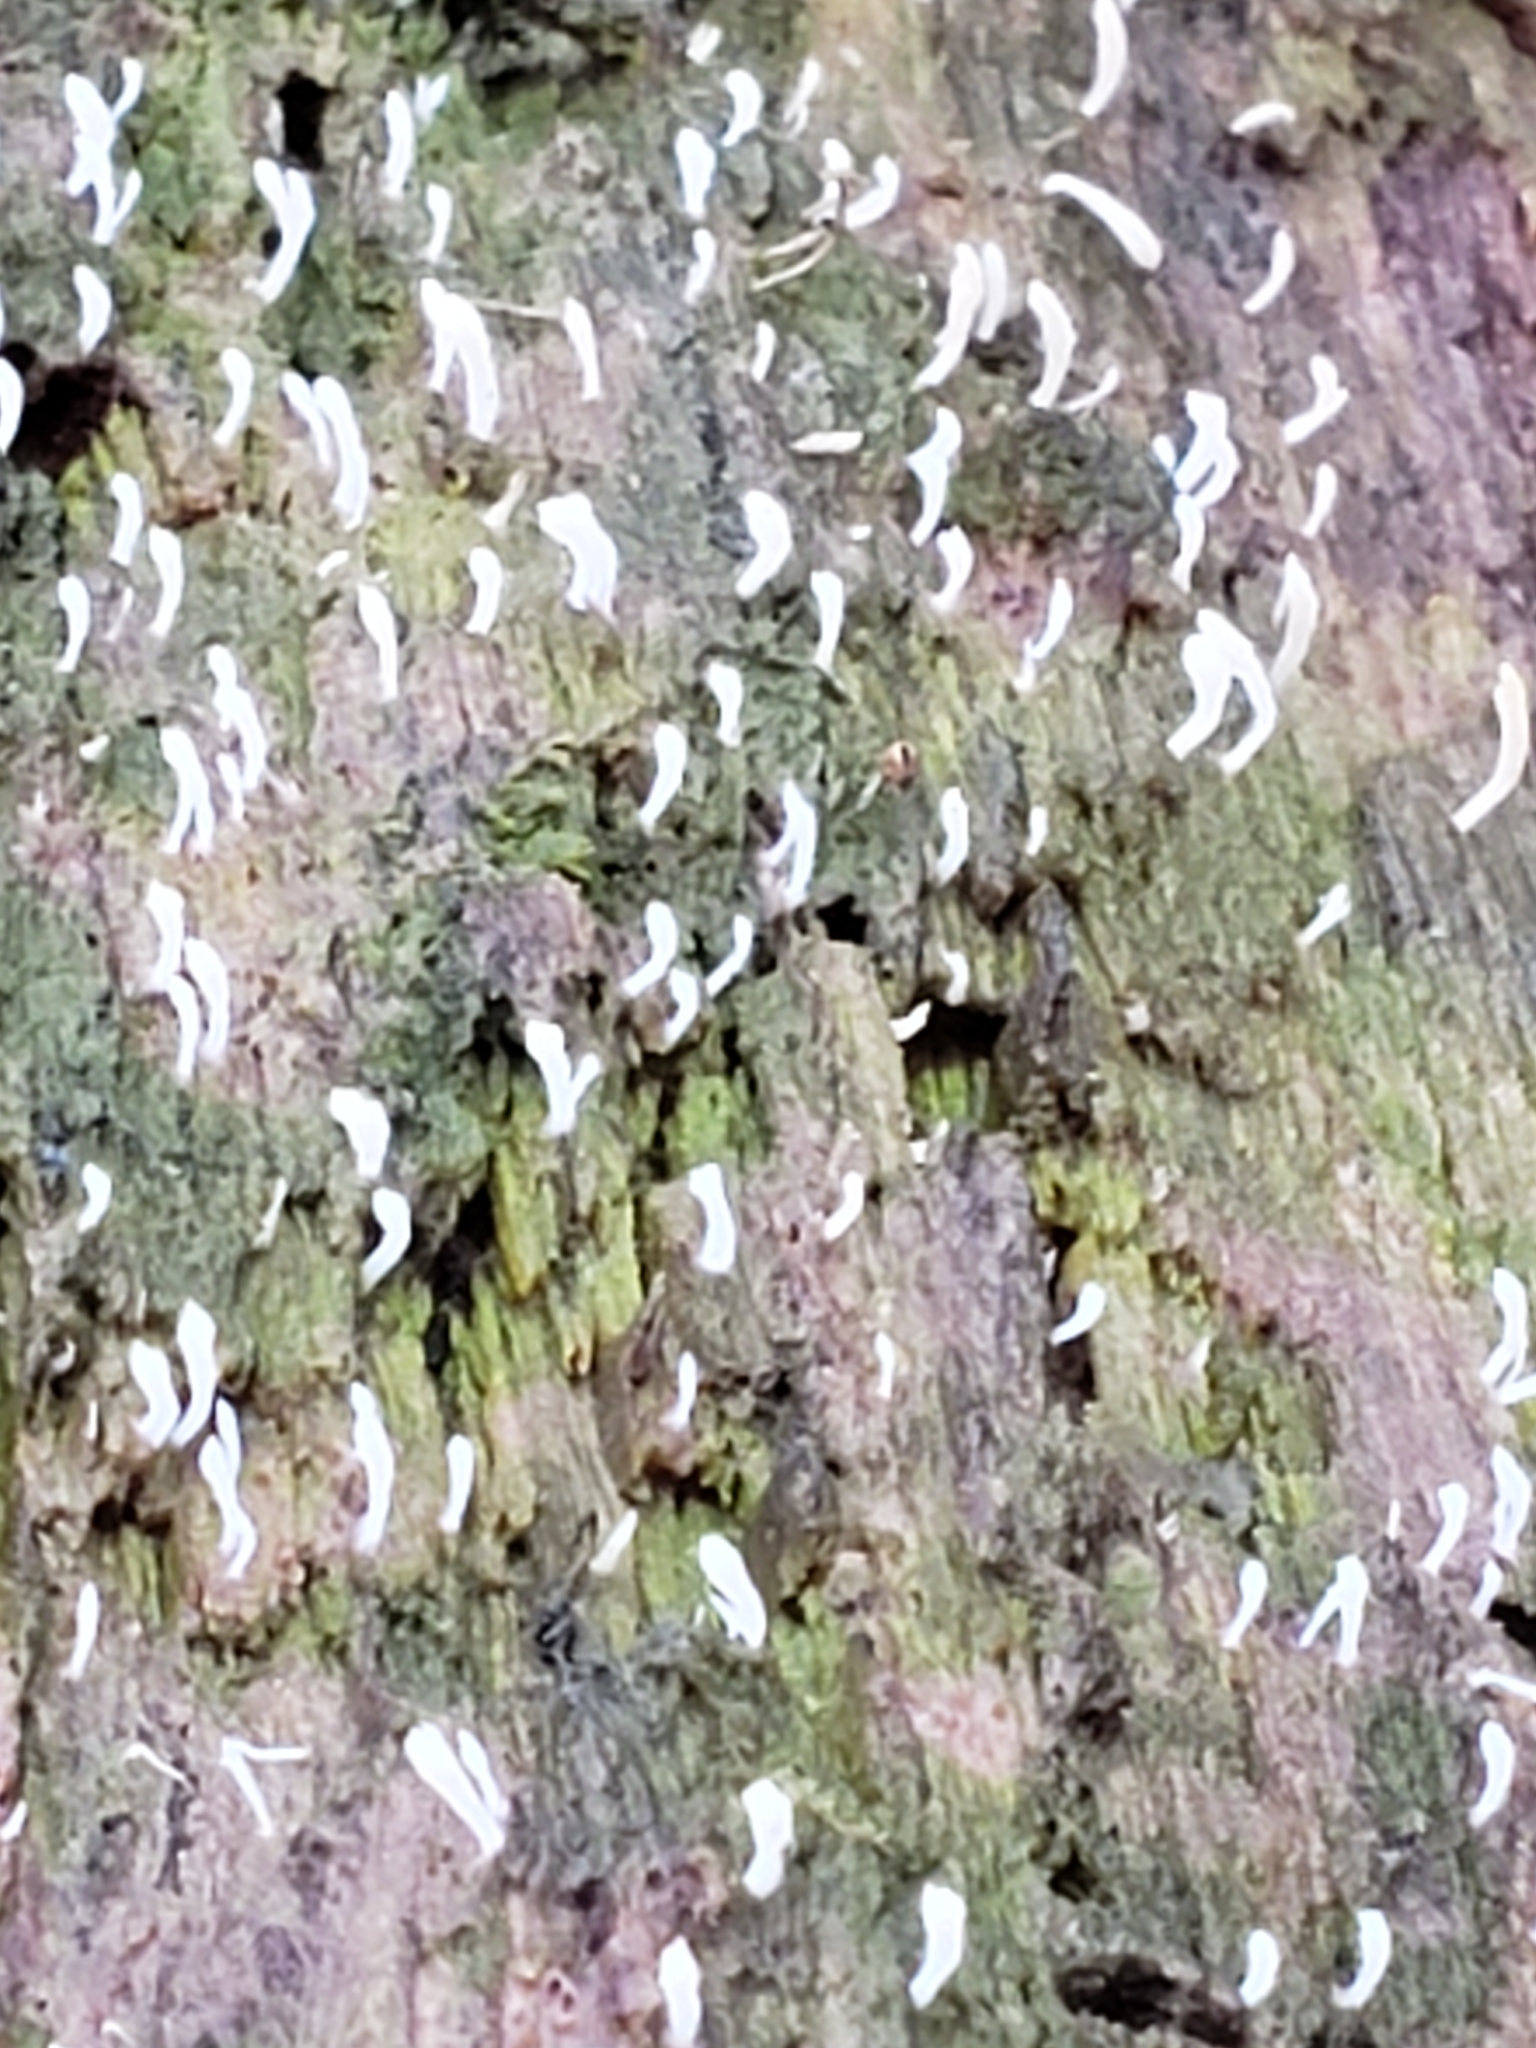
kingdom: Fungi
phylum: Basidiomycota
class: Agaricomycetes
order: Cantharellales
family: Hydnaceae
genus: Multiclavula
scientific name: Multiclavula mucida
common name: White green-algae coral
